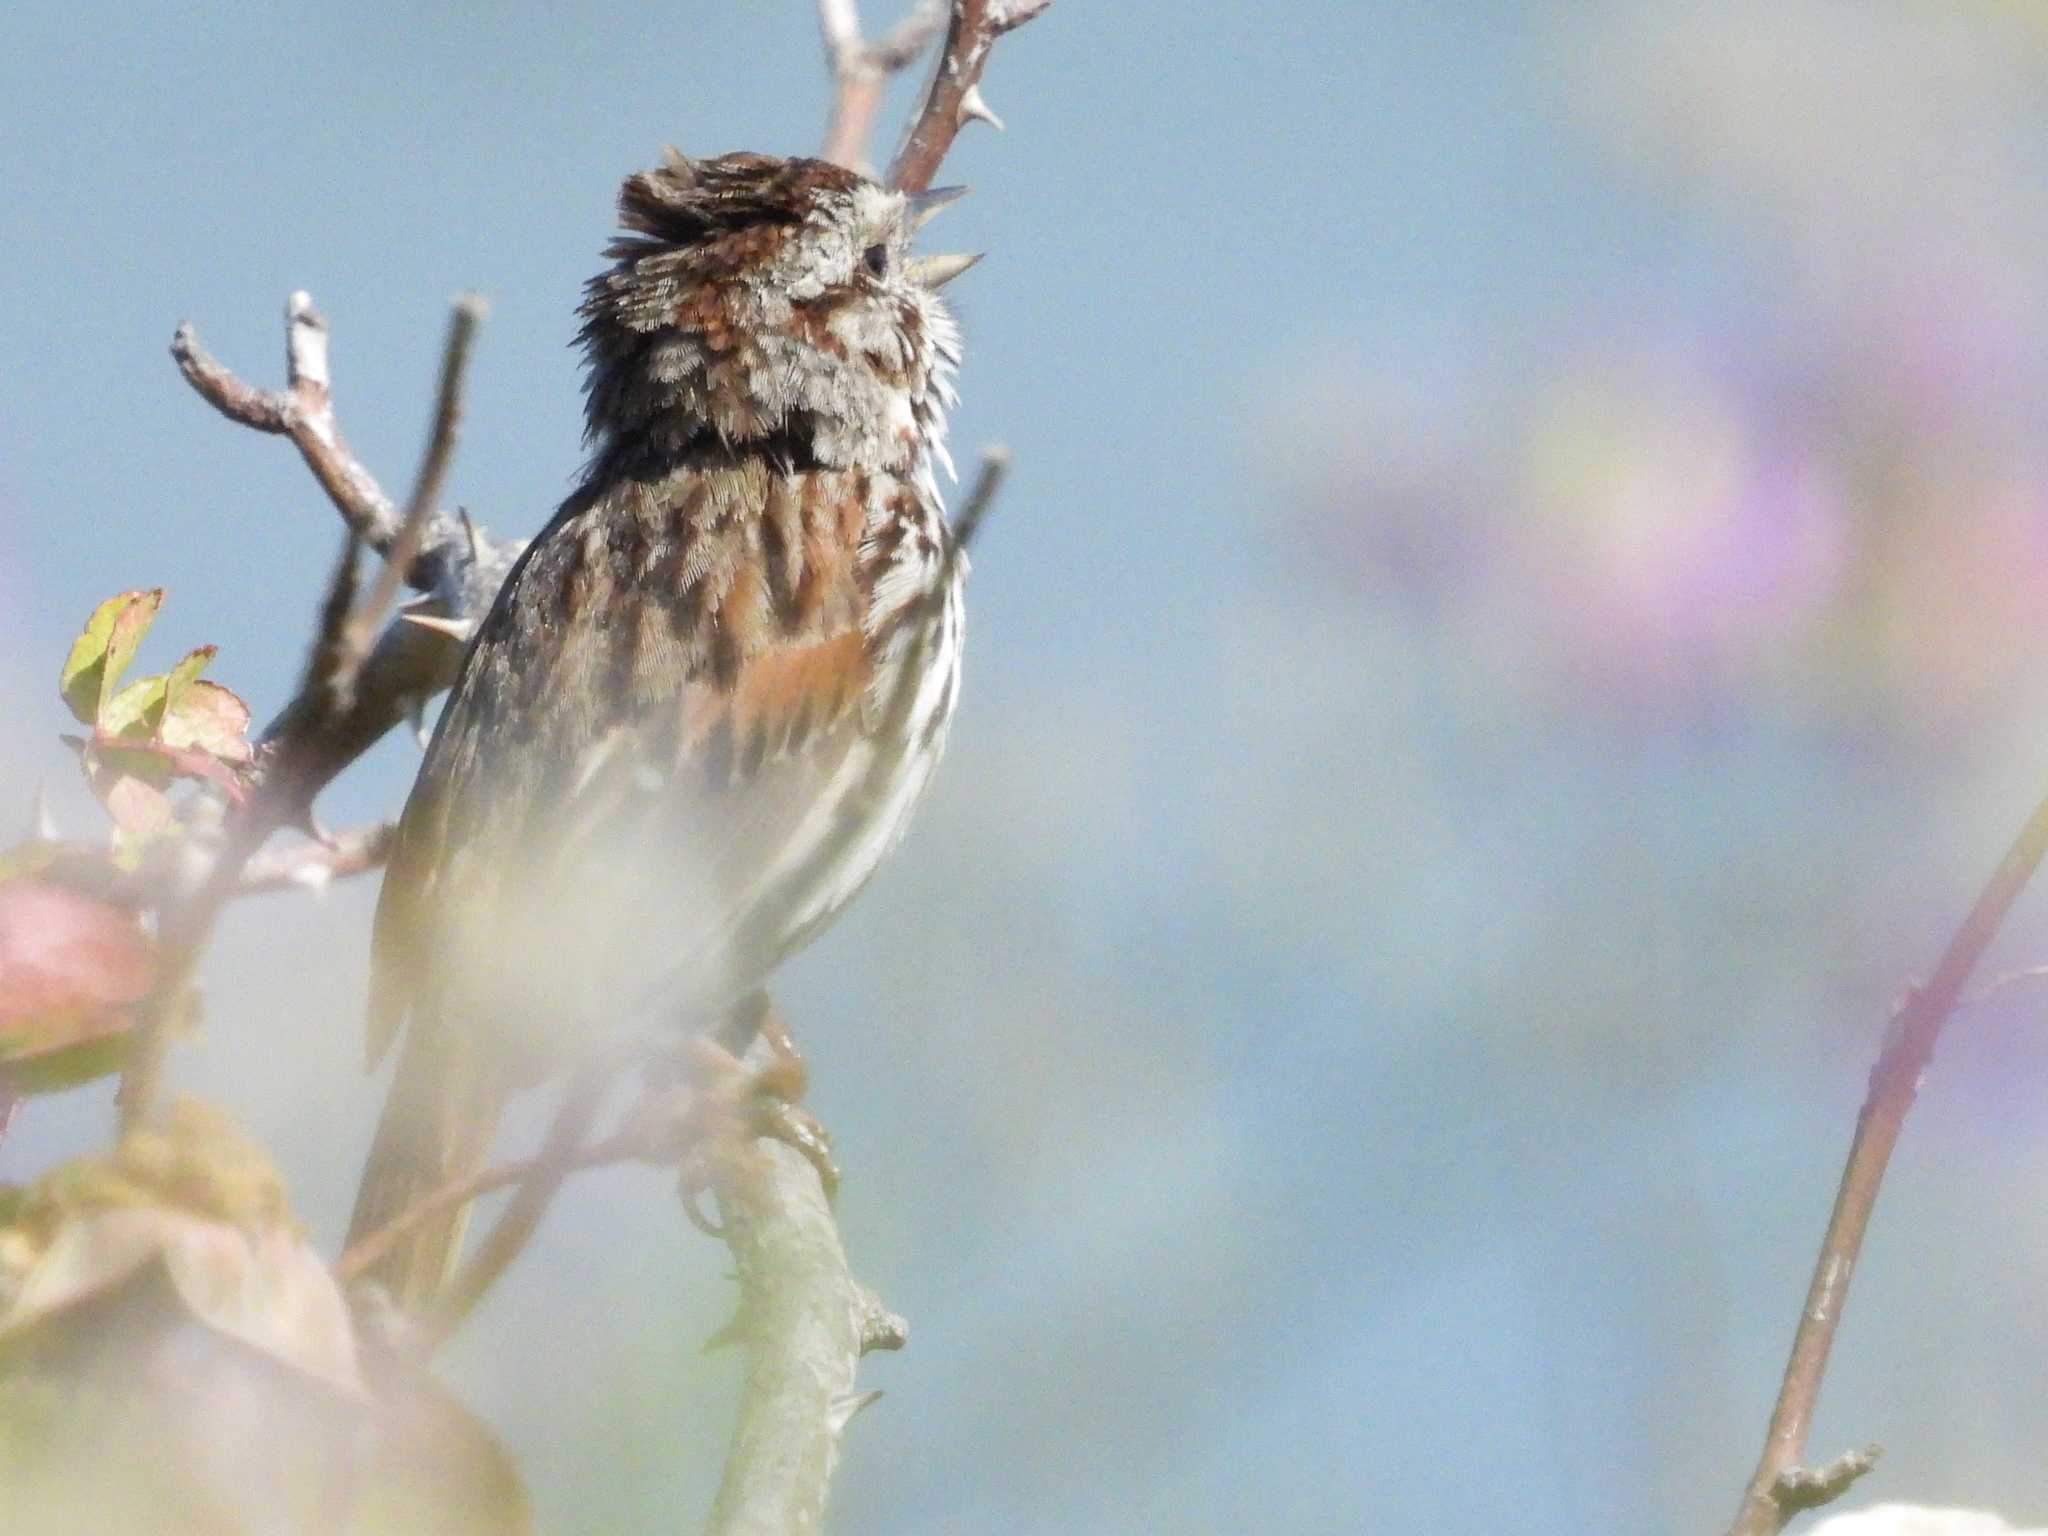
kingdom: Animalia
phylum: Chordata
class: Aves
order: Passeriformes
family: Passerellidae
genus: Melospiza
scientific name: Melospiza melodia
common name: Song sparrow
